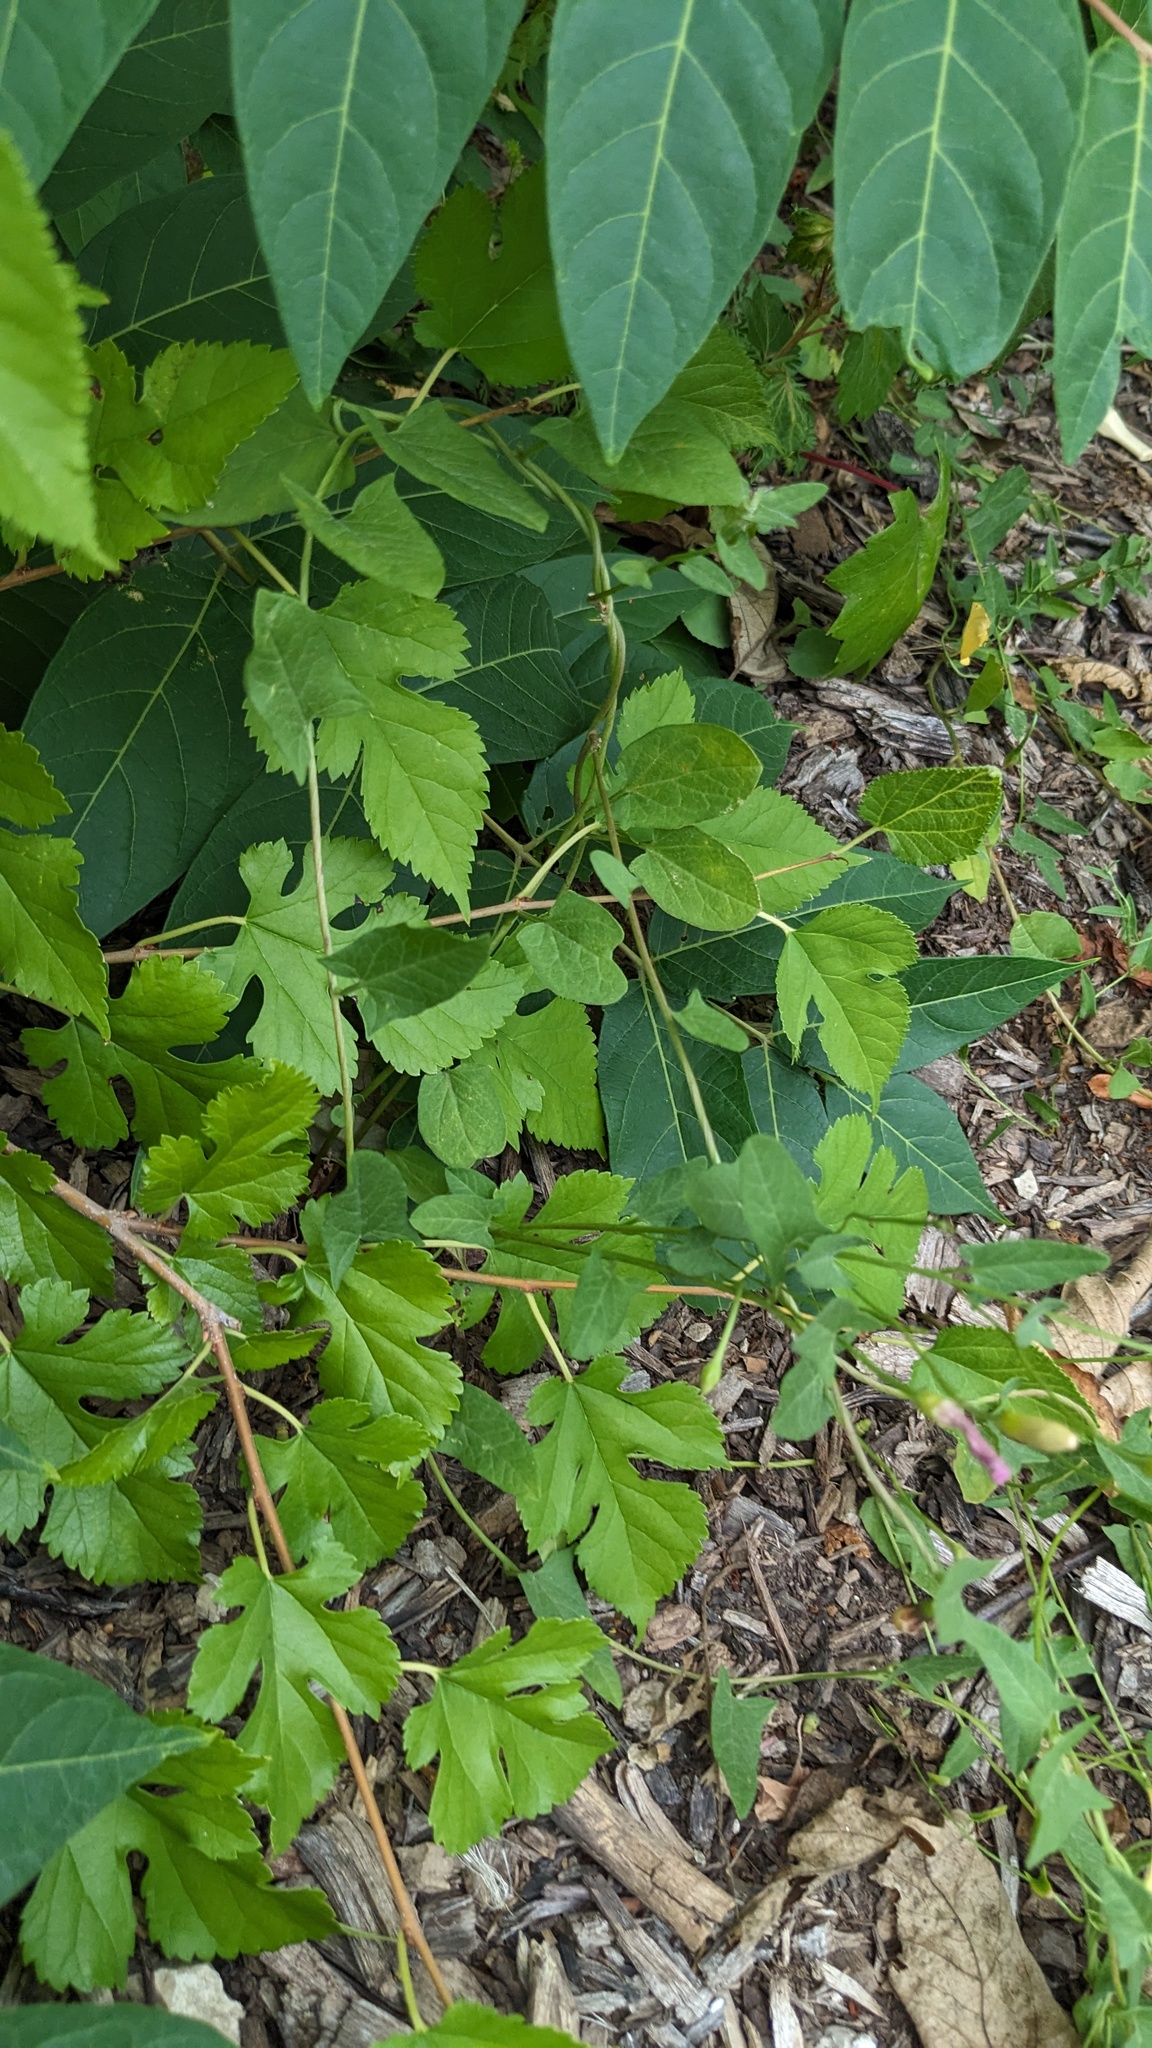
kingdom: Plantae
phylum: Tracheophyta
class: Magnoliopsida
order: Rosales
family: Moraceae
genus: Morus
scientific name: Morus alba
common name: White mulberry
